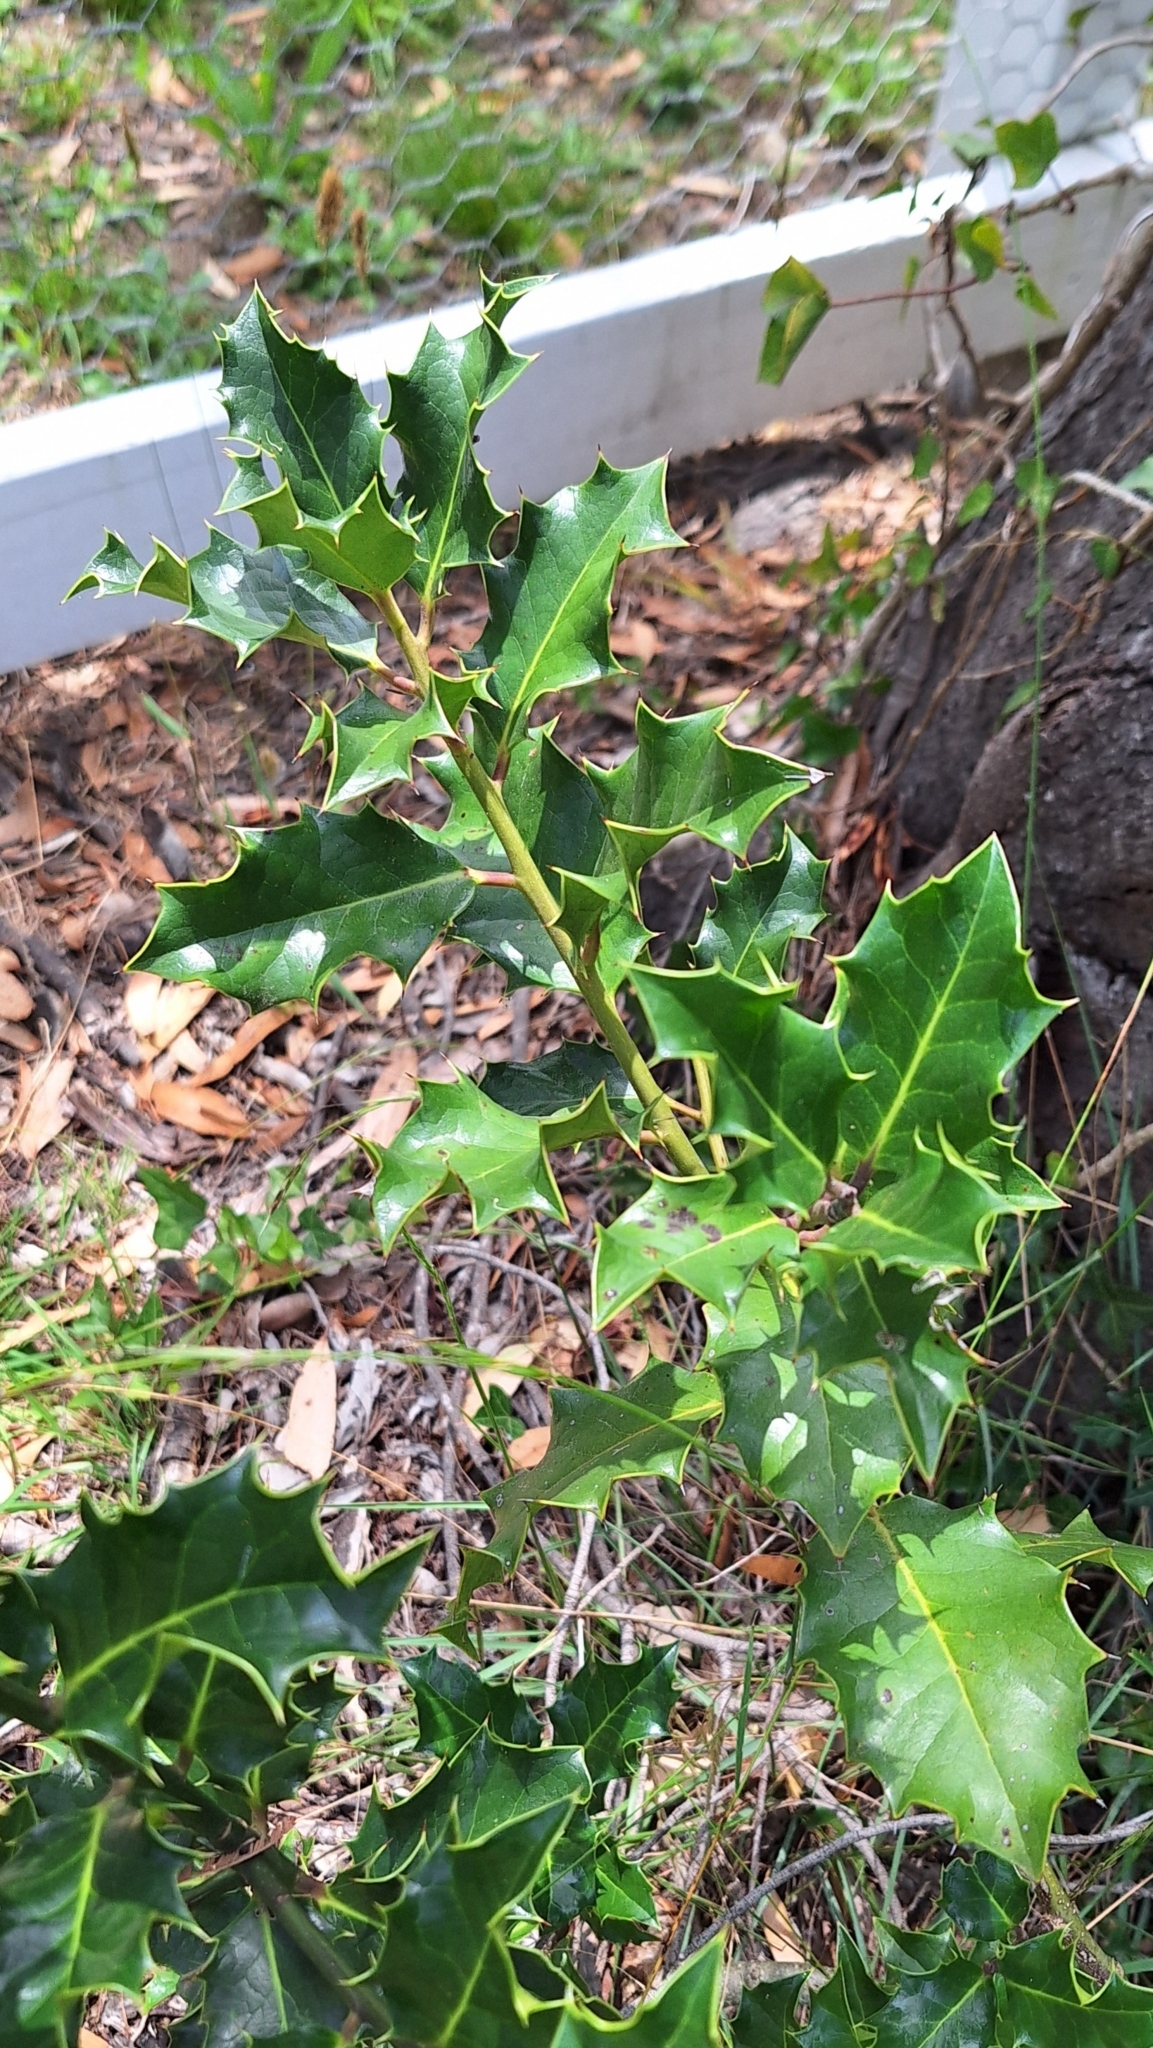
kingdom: Plantae
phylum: Tracheophyta
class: Magnoliopsida
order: Aquifoliales
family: Aquifoliaceae
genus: Ilex
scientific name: Ilex aquifolium
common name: English holly
